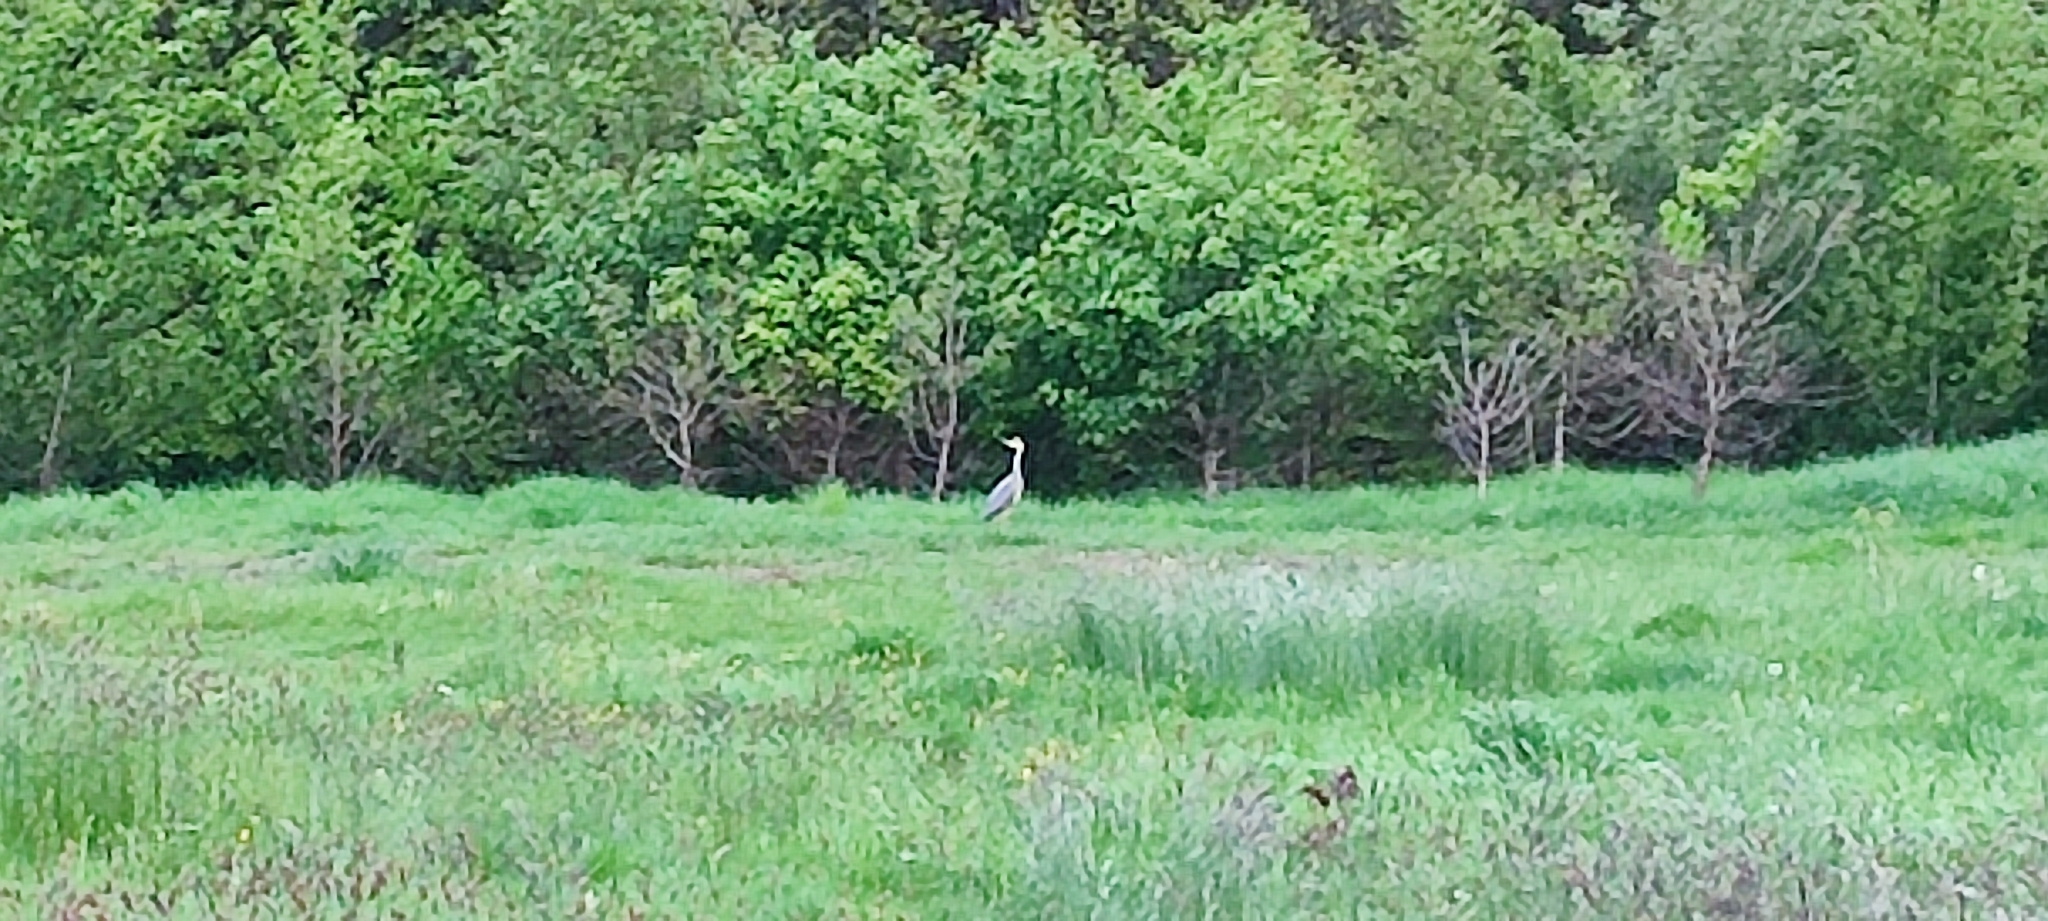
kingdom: Animalia
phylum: Chordata
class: Aves
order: Pelecaniformes
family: Ardeidae
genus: Ardea
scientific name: Ardea cinerea
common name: Grey heron
